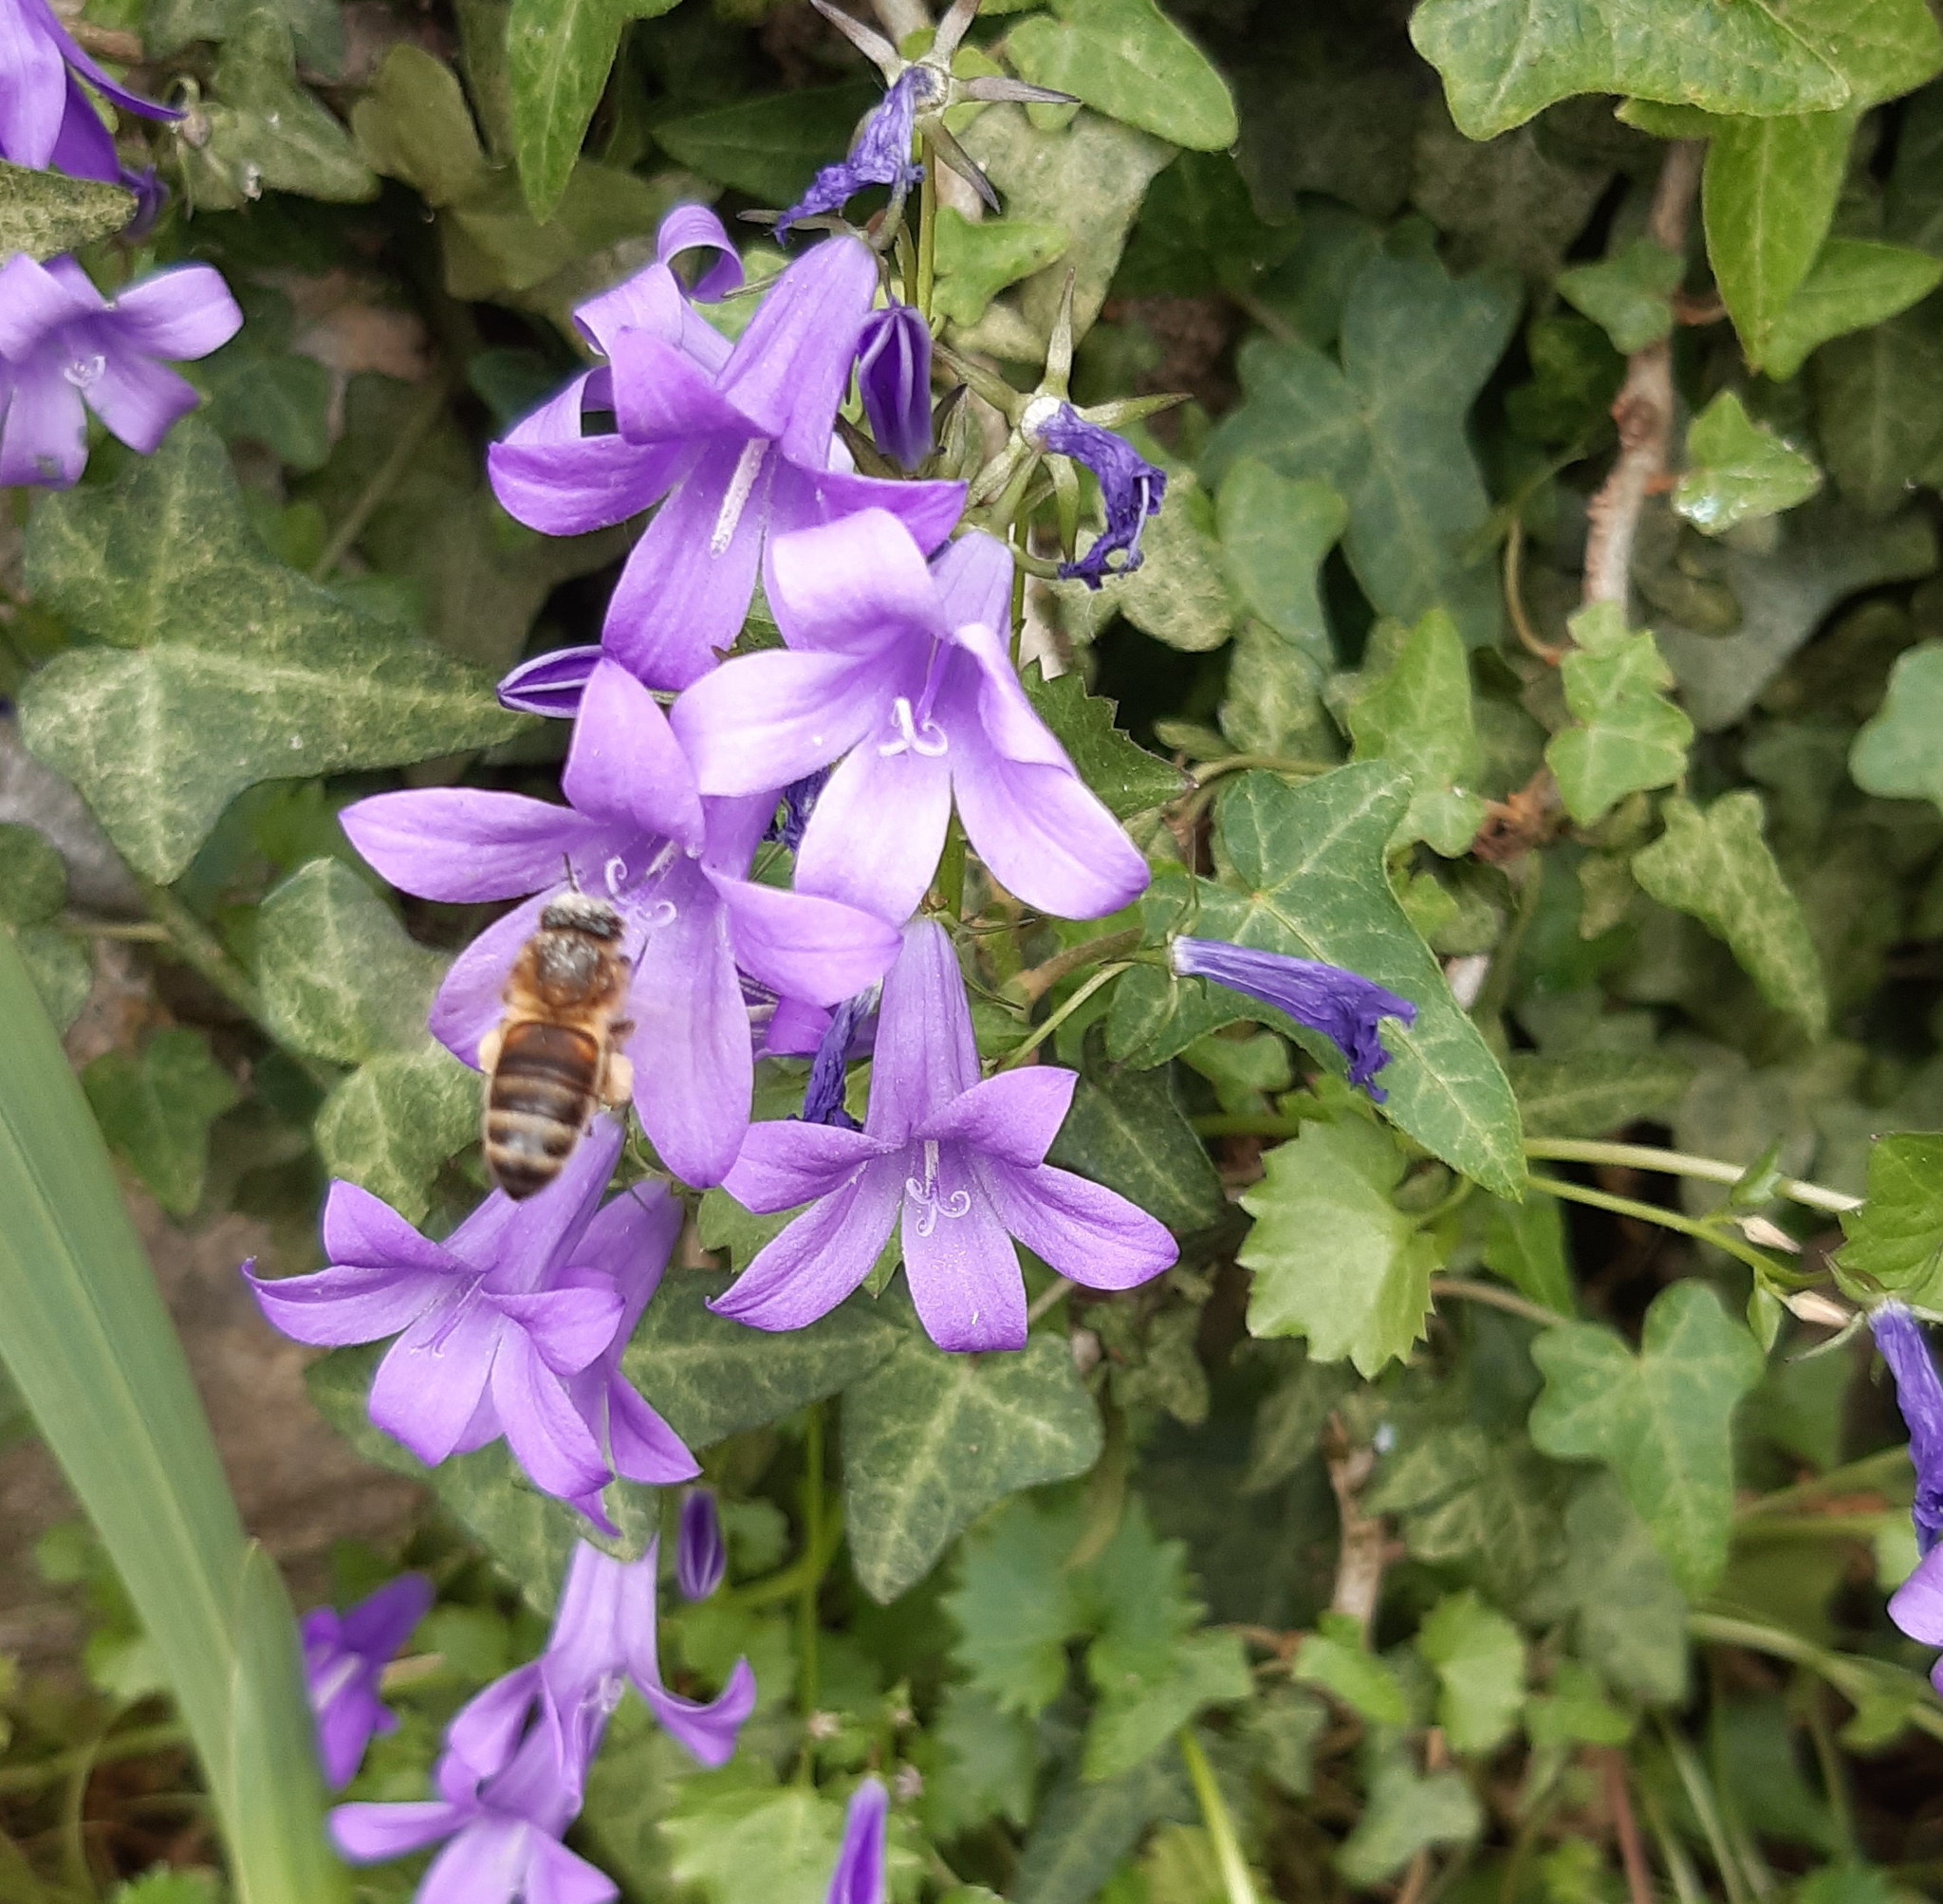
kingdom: Animalia
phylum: Arthropoda
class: Insecta
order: Hymenoptera
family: Apidae
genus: Apis
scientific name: Apis mellifera
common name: Honey bee
